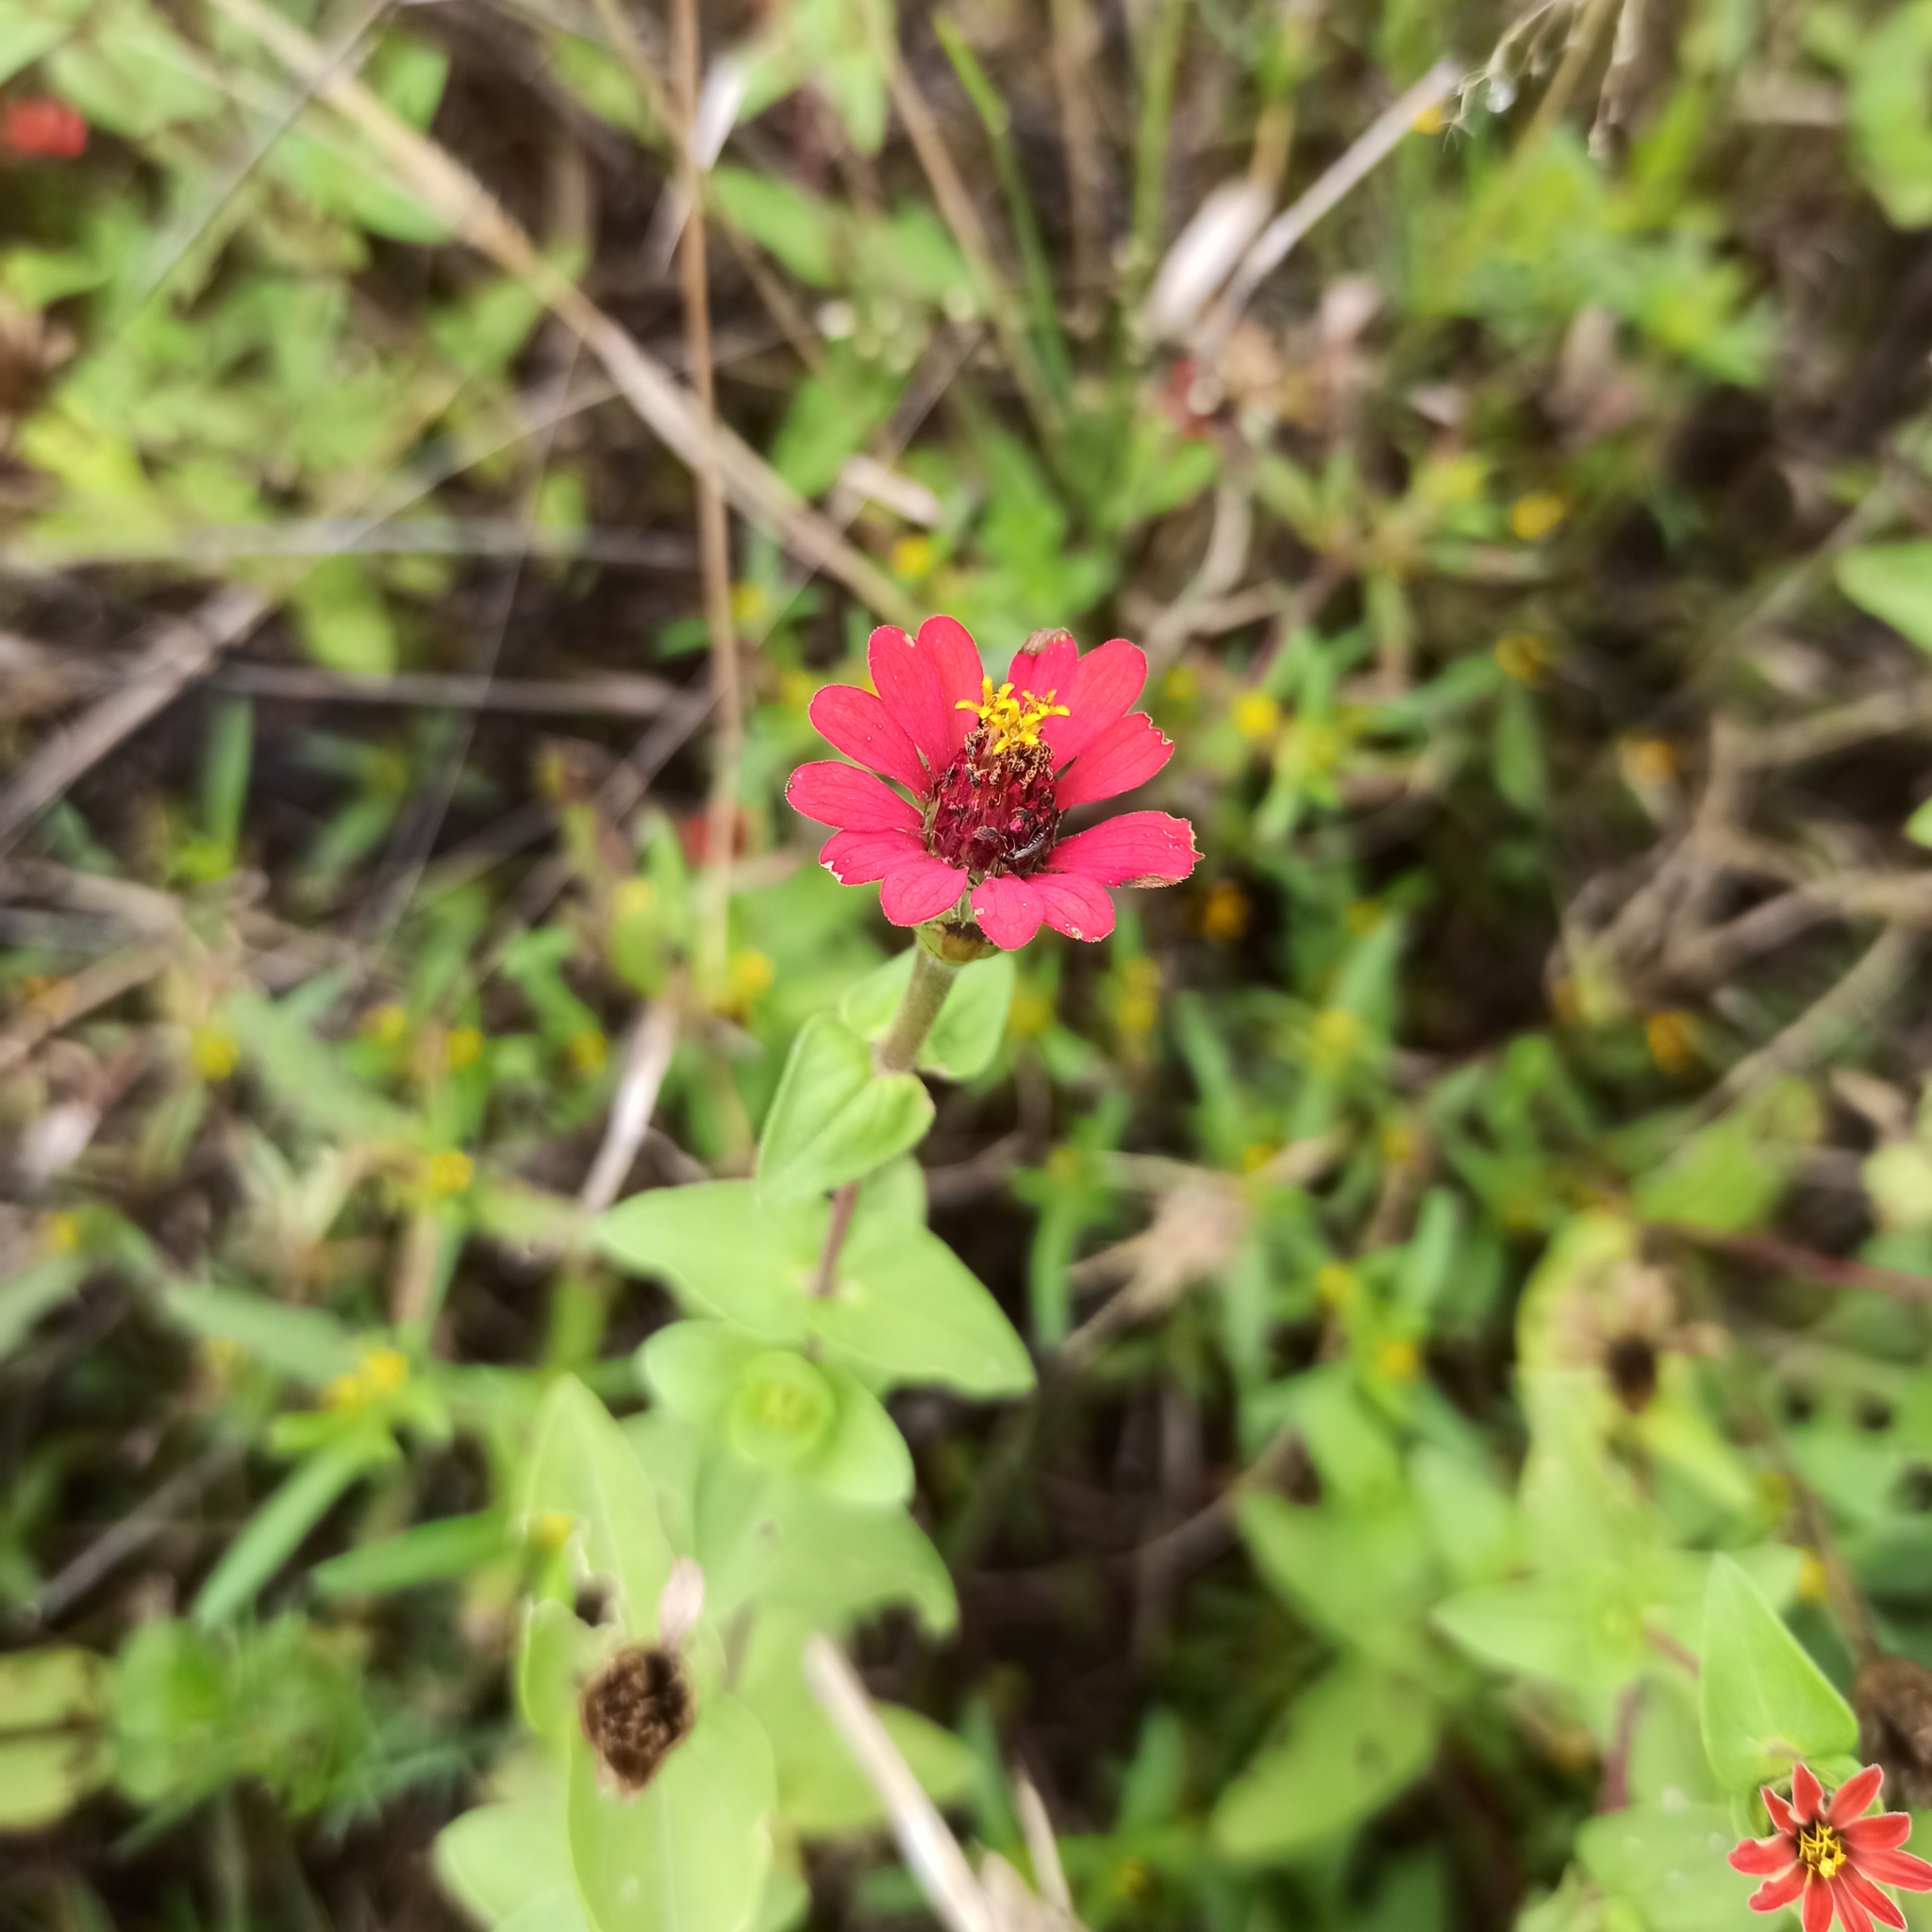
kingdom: Plantae
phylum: Tracheophyta
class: Magnoliopsida
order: Asterales
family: Asteraceae
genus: Zinnia
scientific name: Zinnia peruviana
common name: Peruvian zinnia
